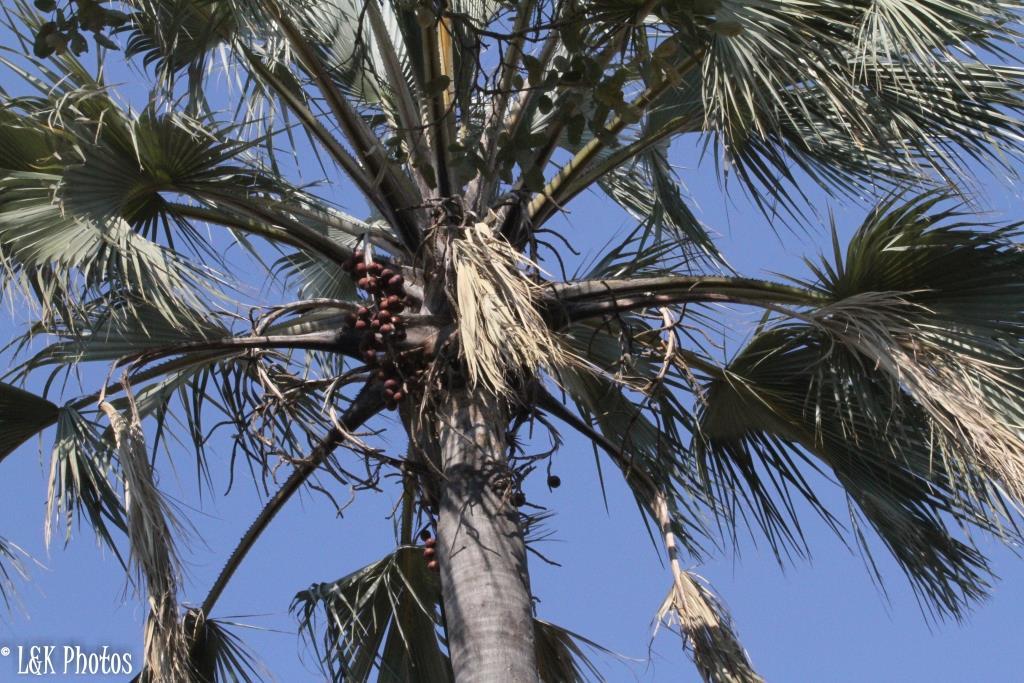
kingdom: Plantae
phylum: Tracheophyta
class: Liliopsida
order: Arecales
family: Arecaceae
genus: Hyphaene
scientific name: Hyphaene petersiana
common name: African ivory nut palm
